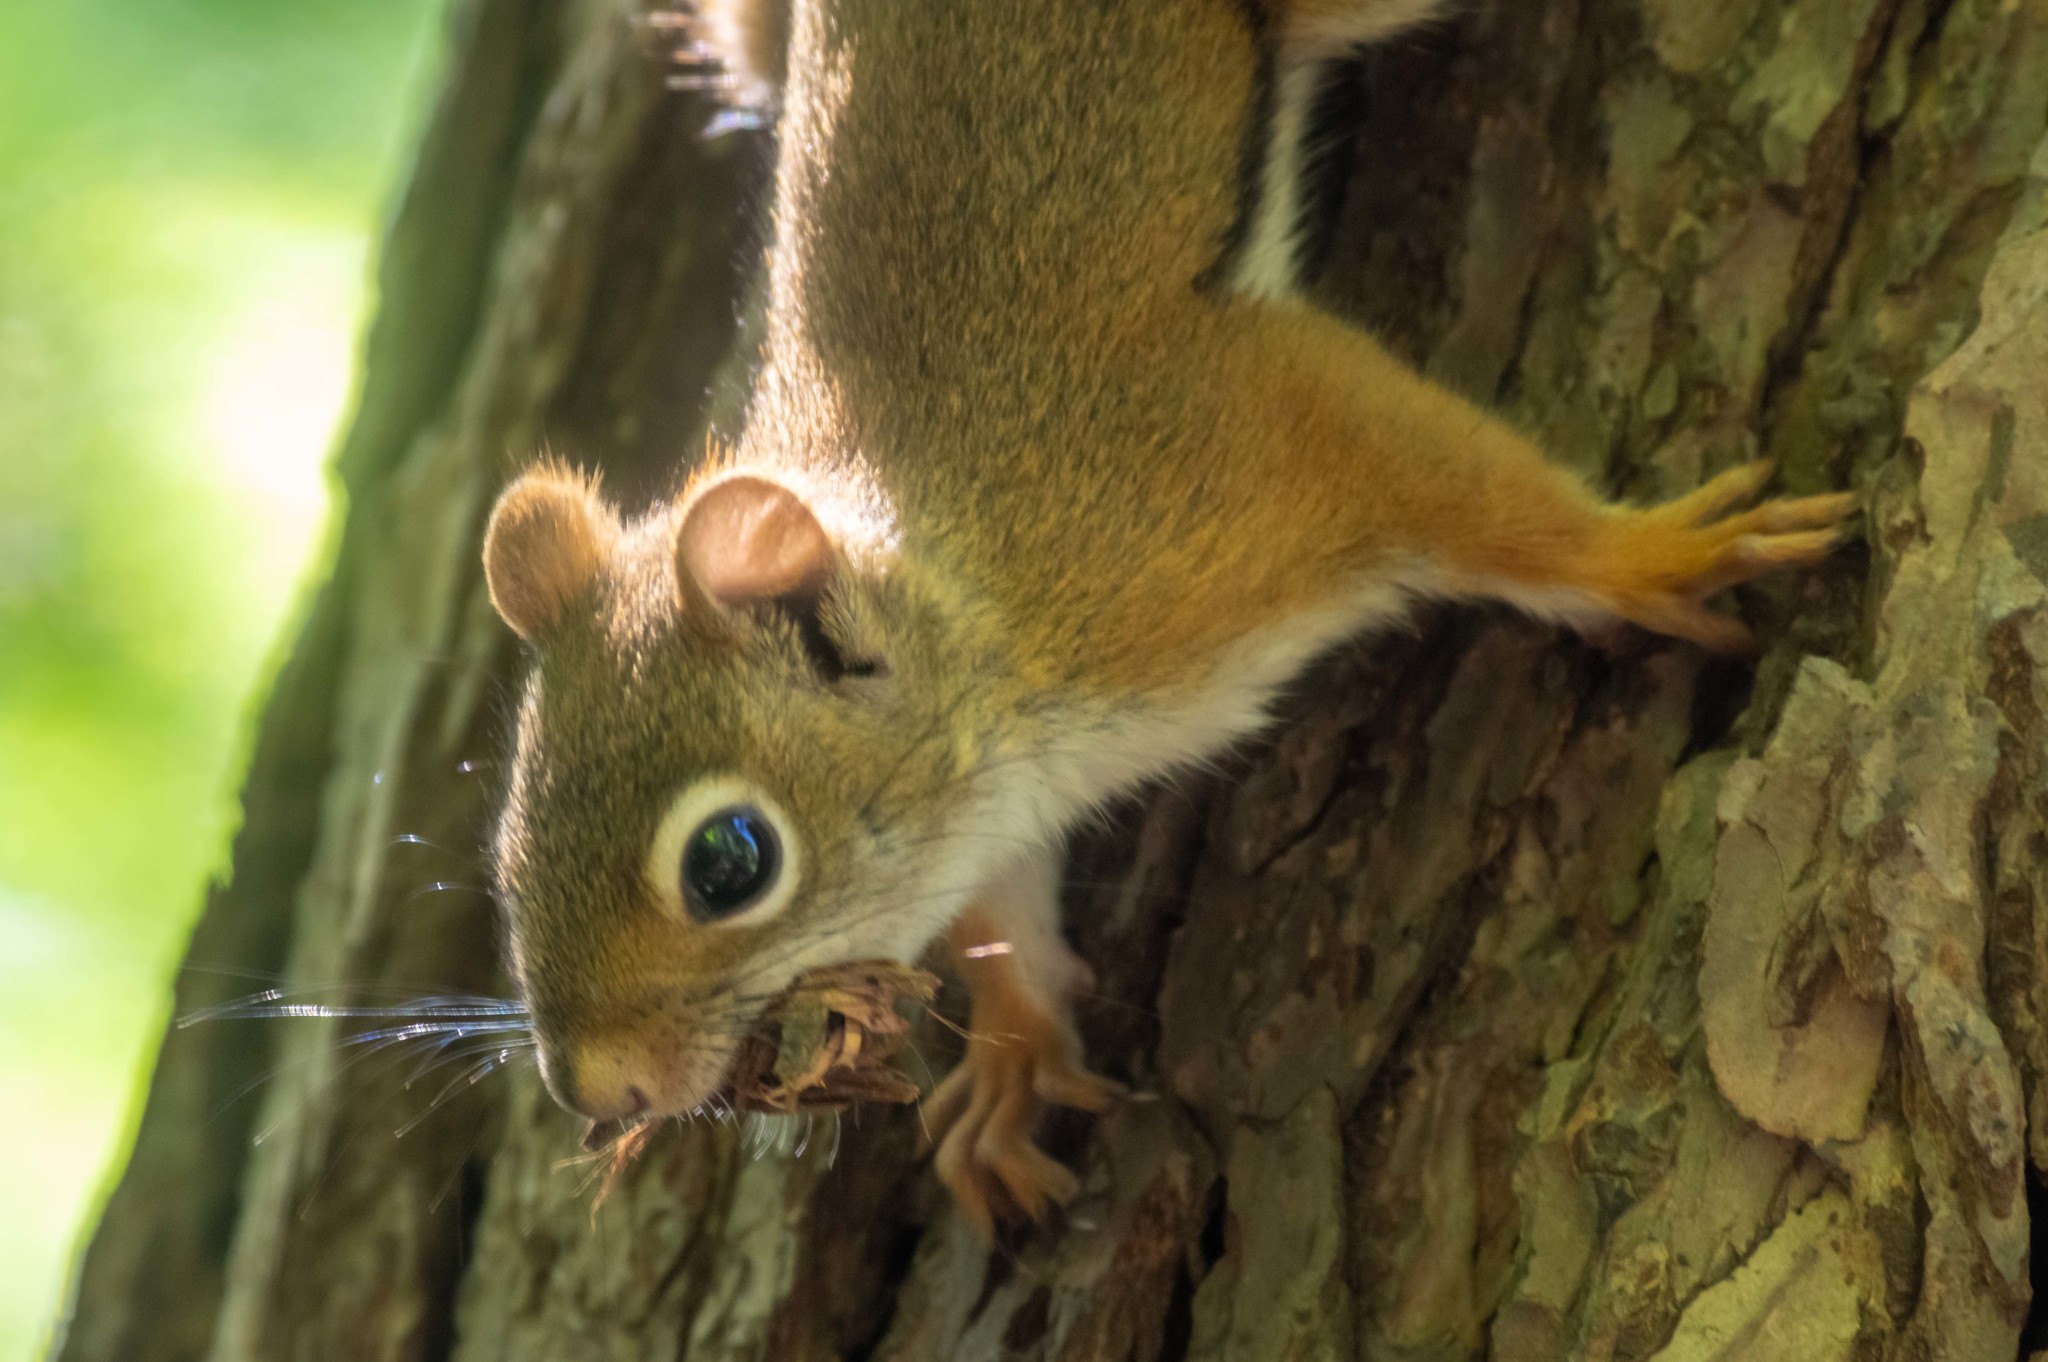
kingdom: Animalia
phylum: Chordata
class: Mammalia
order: Rodentia
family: Sciuridae
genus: Tamiasciurus
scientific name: Tamiasciurus hudsonicus
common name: Red squirrel
